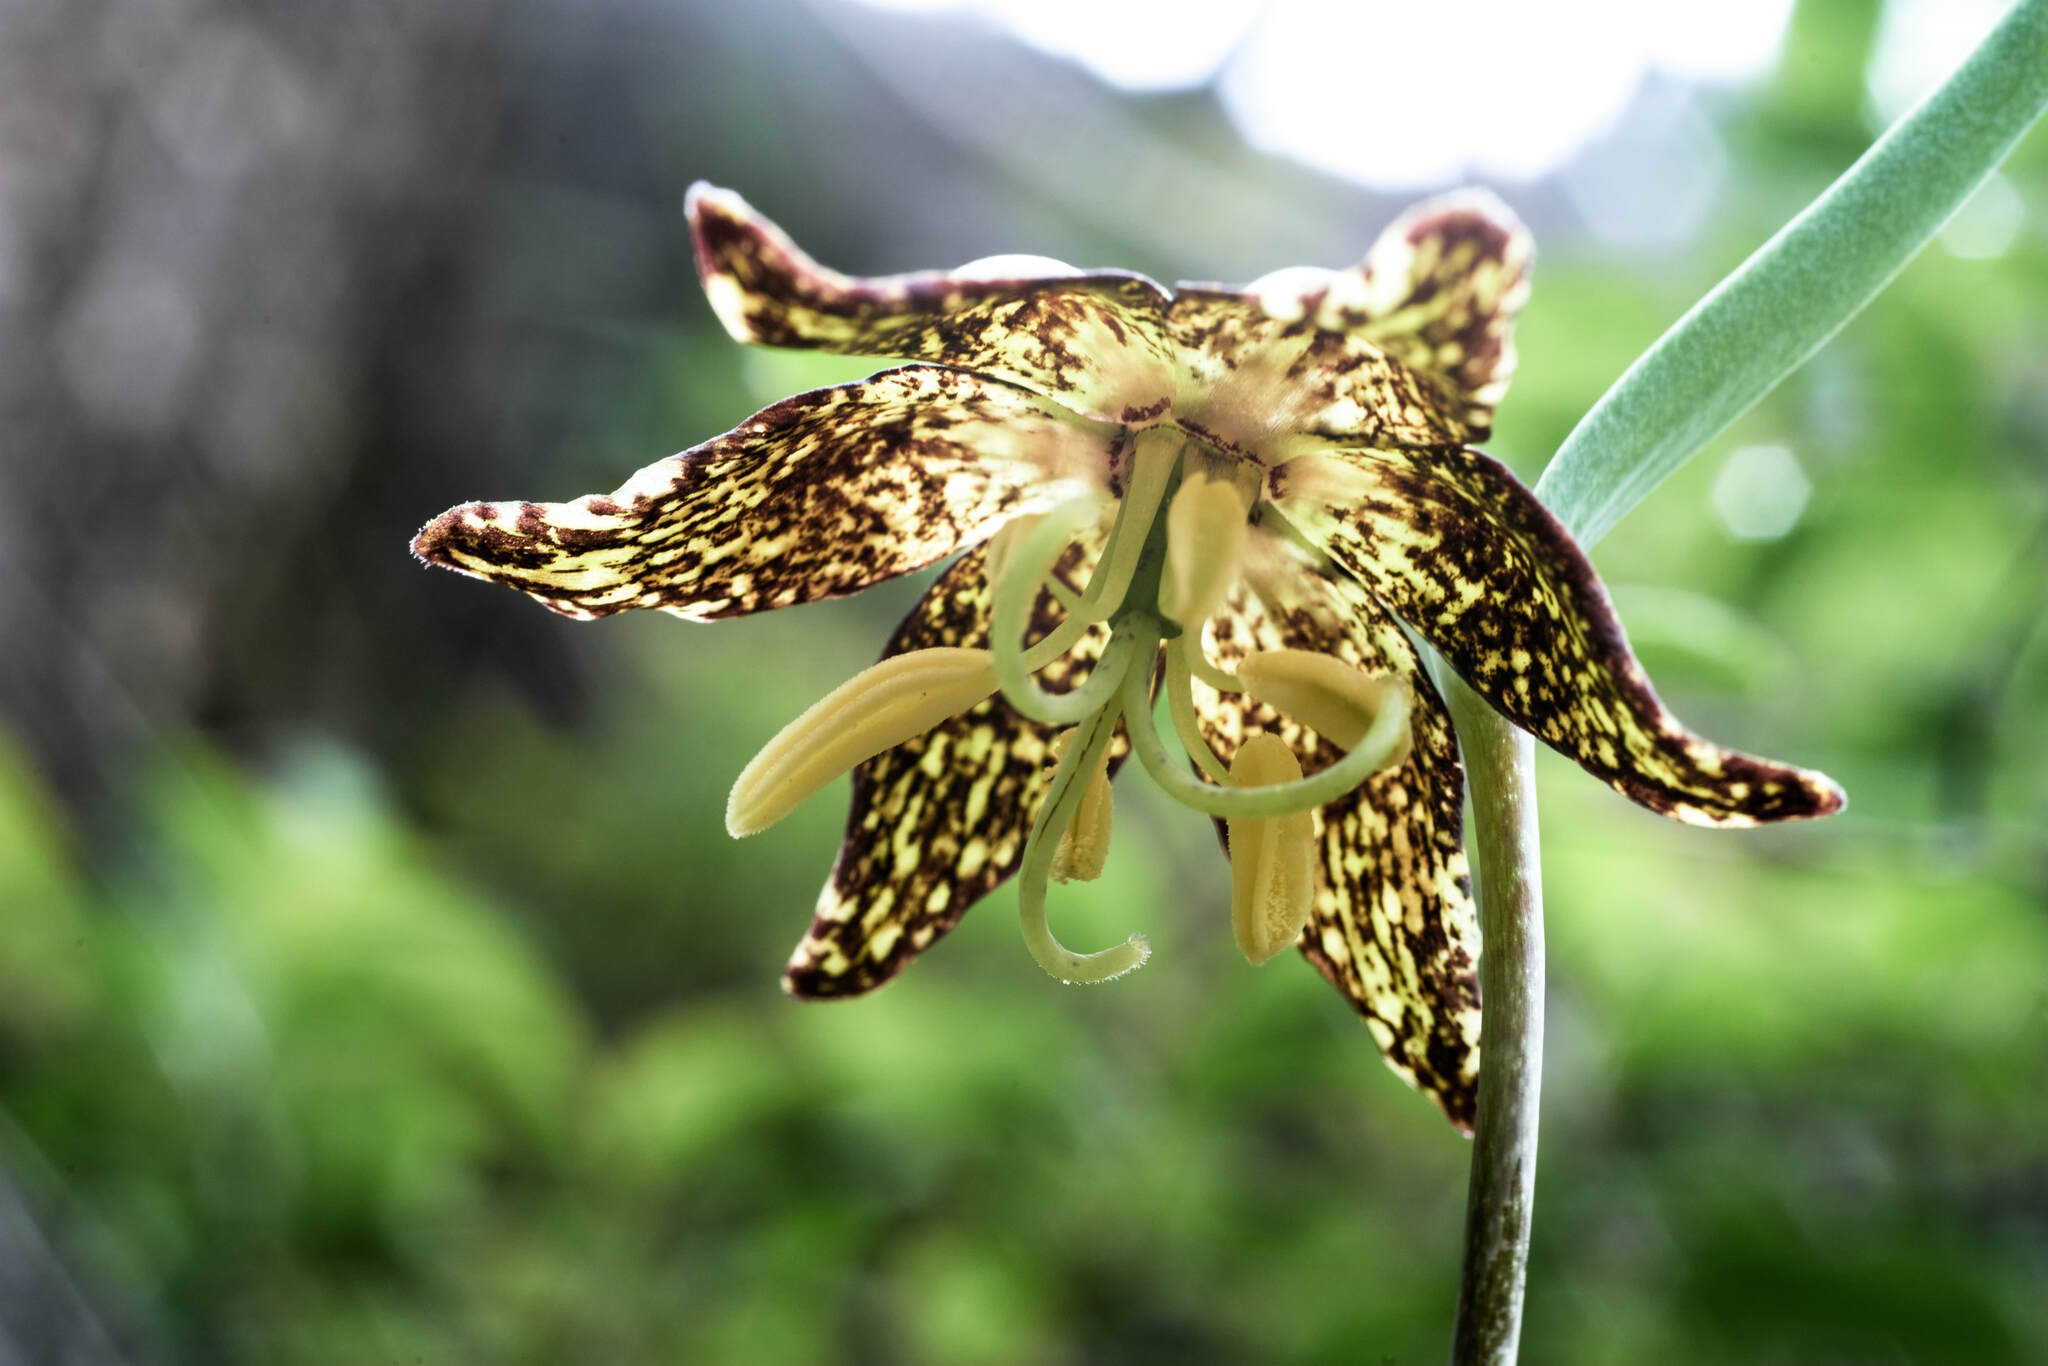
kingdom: Plantae
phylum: Tracheophyta
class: Liliopsida
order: Liliales
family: Liliaceae
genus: Fritillaria
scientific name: Fritillaria atropurpurea
